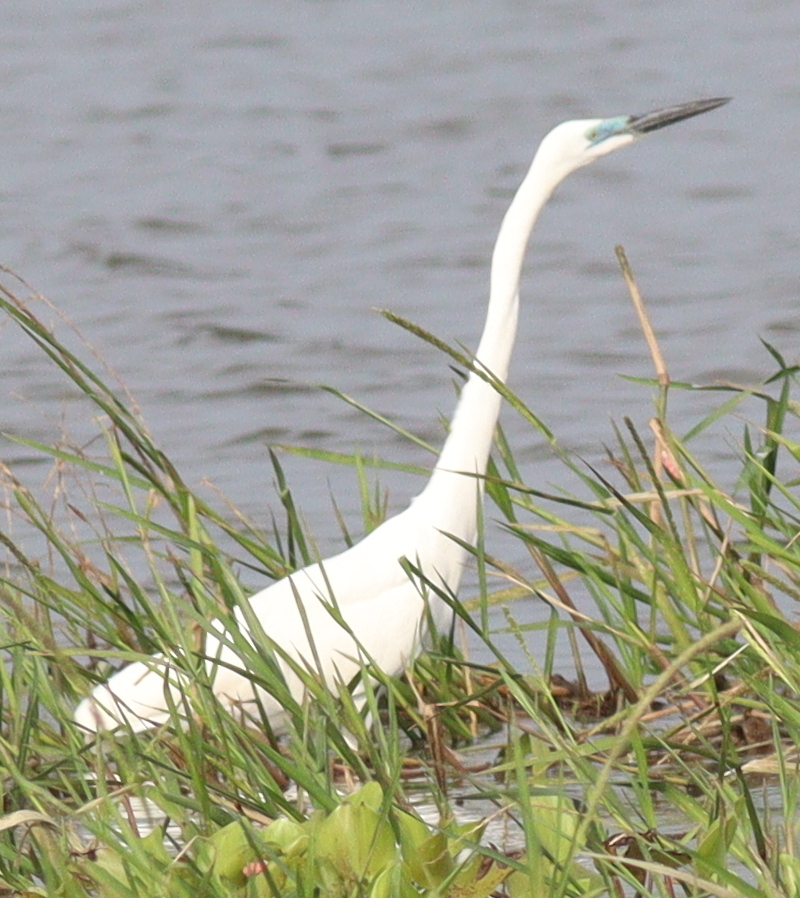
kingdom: Animalia
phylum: Chordata
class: Aves
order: Pelecaniformes
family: Ardeidae
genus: Ardea
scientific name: Ardea alba
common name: Great egret
